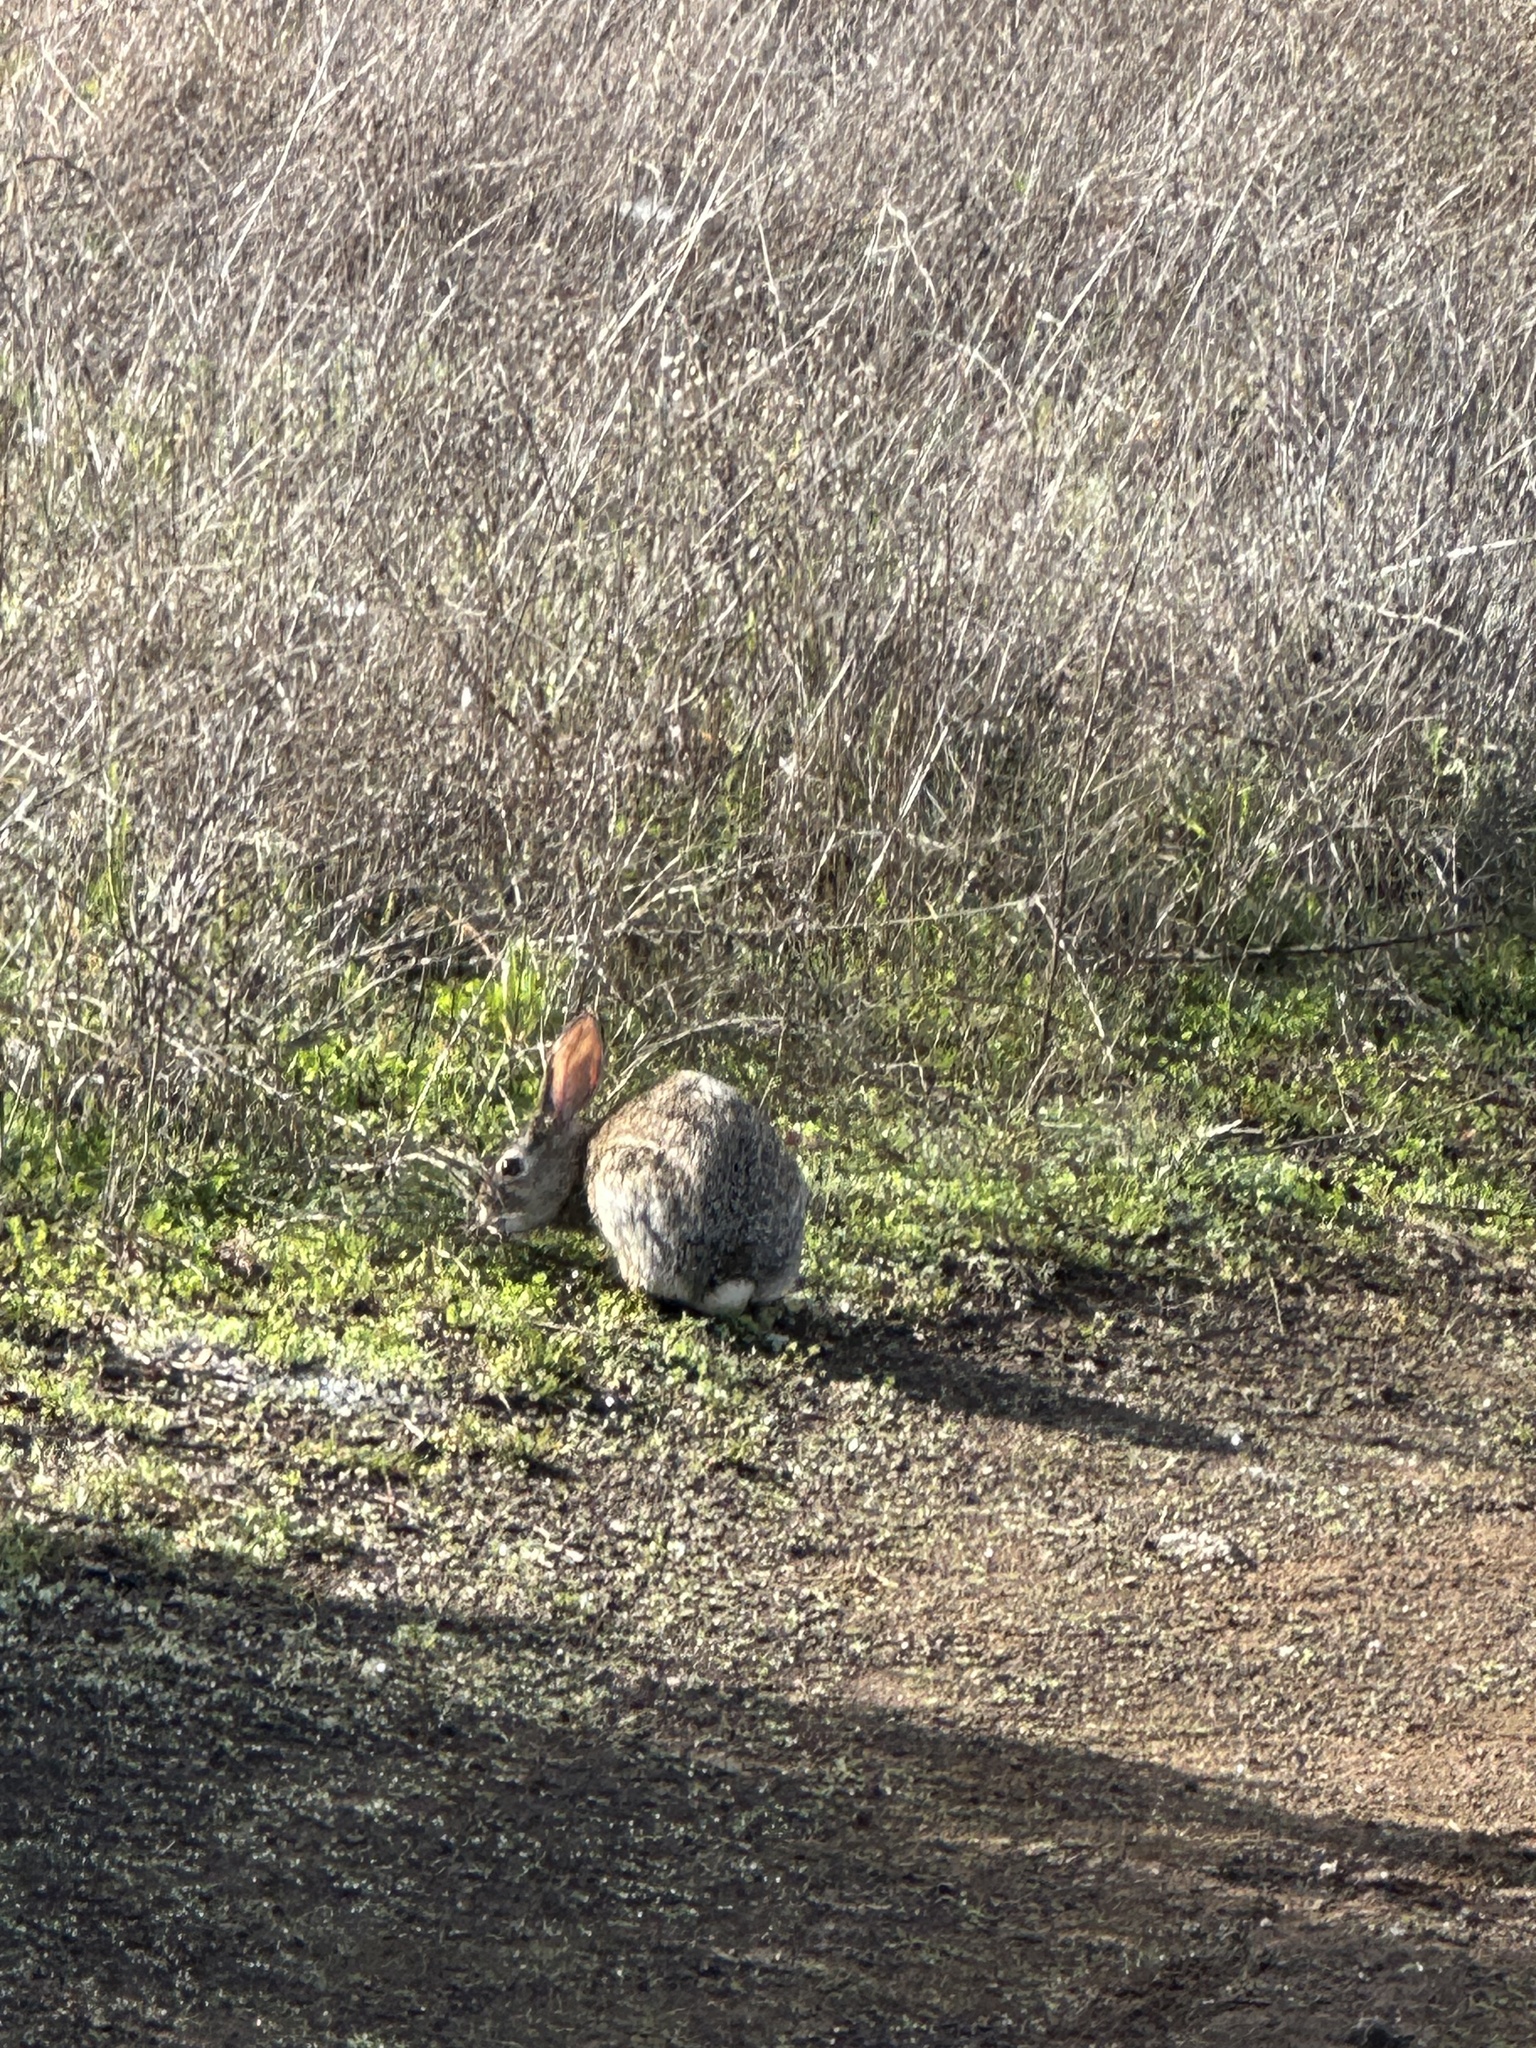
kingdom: Animalia
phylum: Chordata
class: Mammalia
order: Lagomorpha
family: Leporidae
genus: Sylvilagus
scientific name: Sylvilagus audubonii
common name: Desert cottontail
